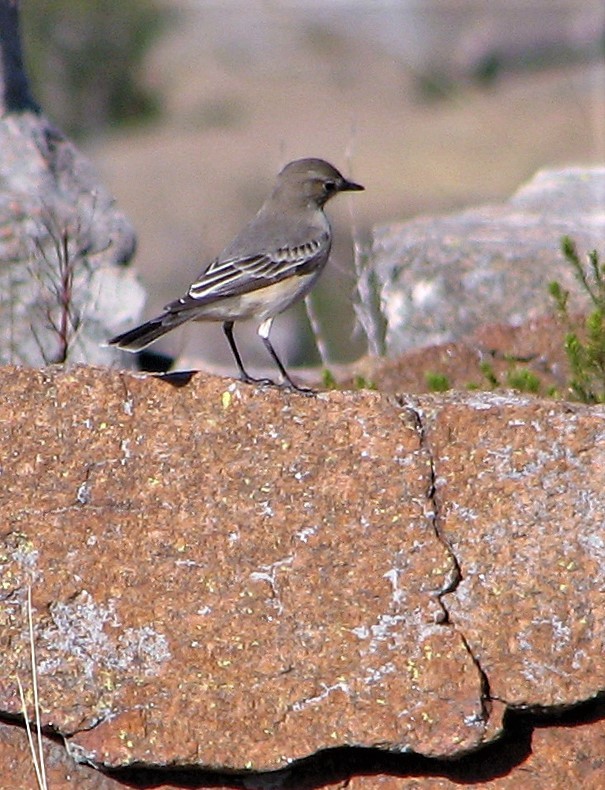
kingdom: Animalia
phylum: Chordata
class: Aves
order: Passeriformes
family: Tyrannidae
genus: Agriornis
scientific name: Agriornis murinus
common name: Lesser shrike-tyrant
